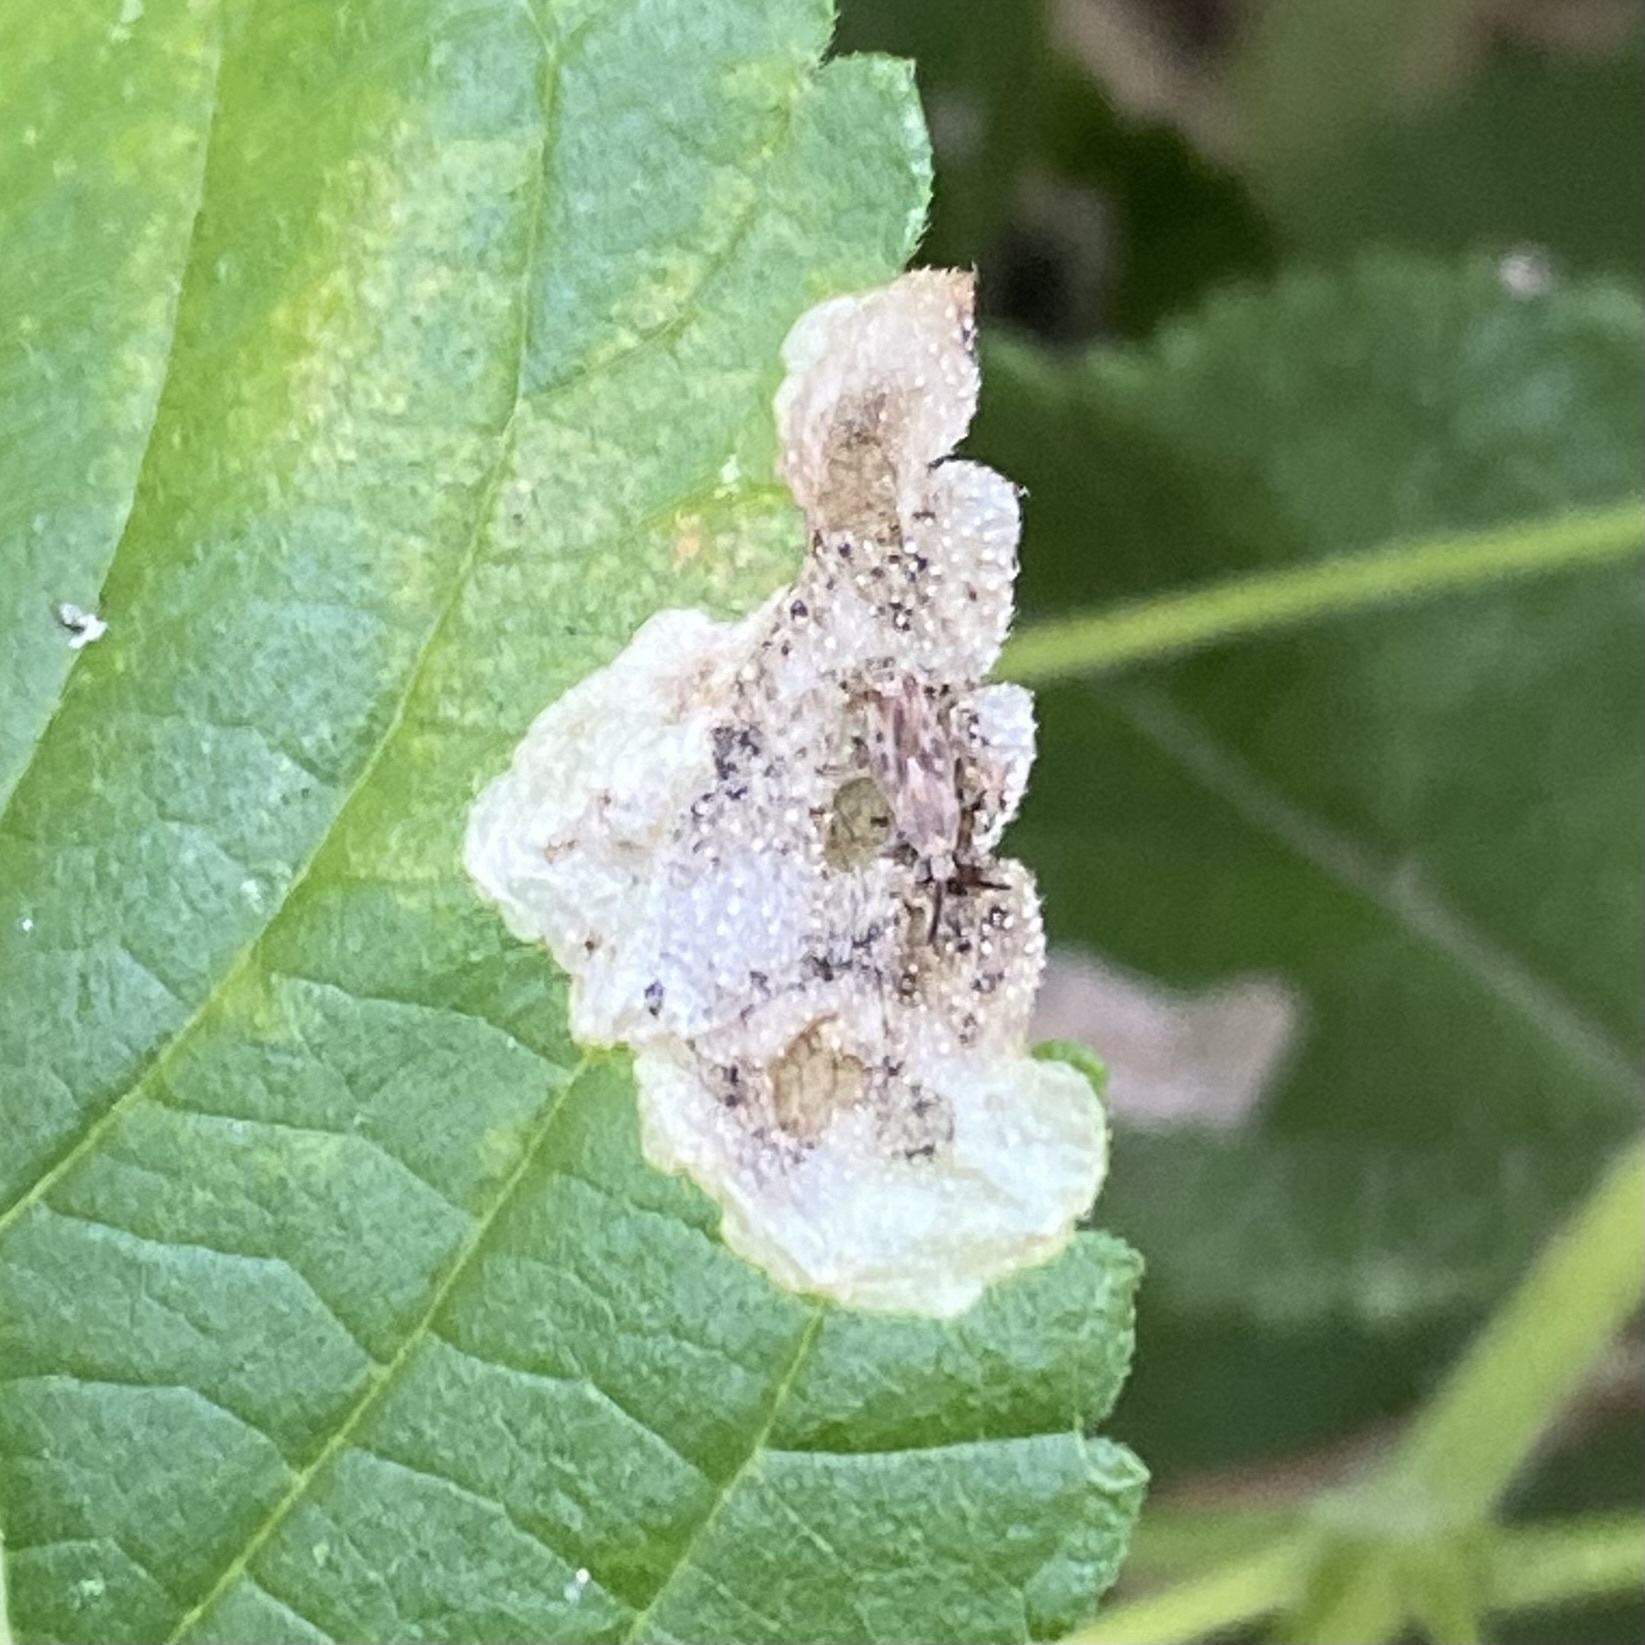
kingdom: Animalia
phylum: Arthropoda
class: Insecta
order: Diptera
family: Agromyzidae
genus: Calycomyza
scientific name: Calycomyza lantanae
